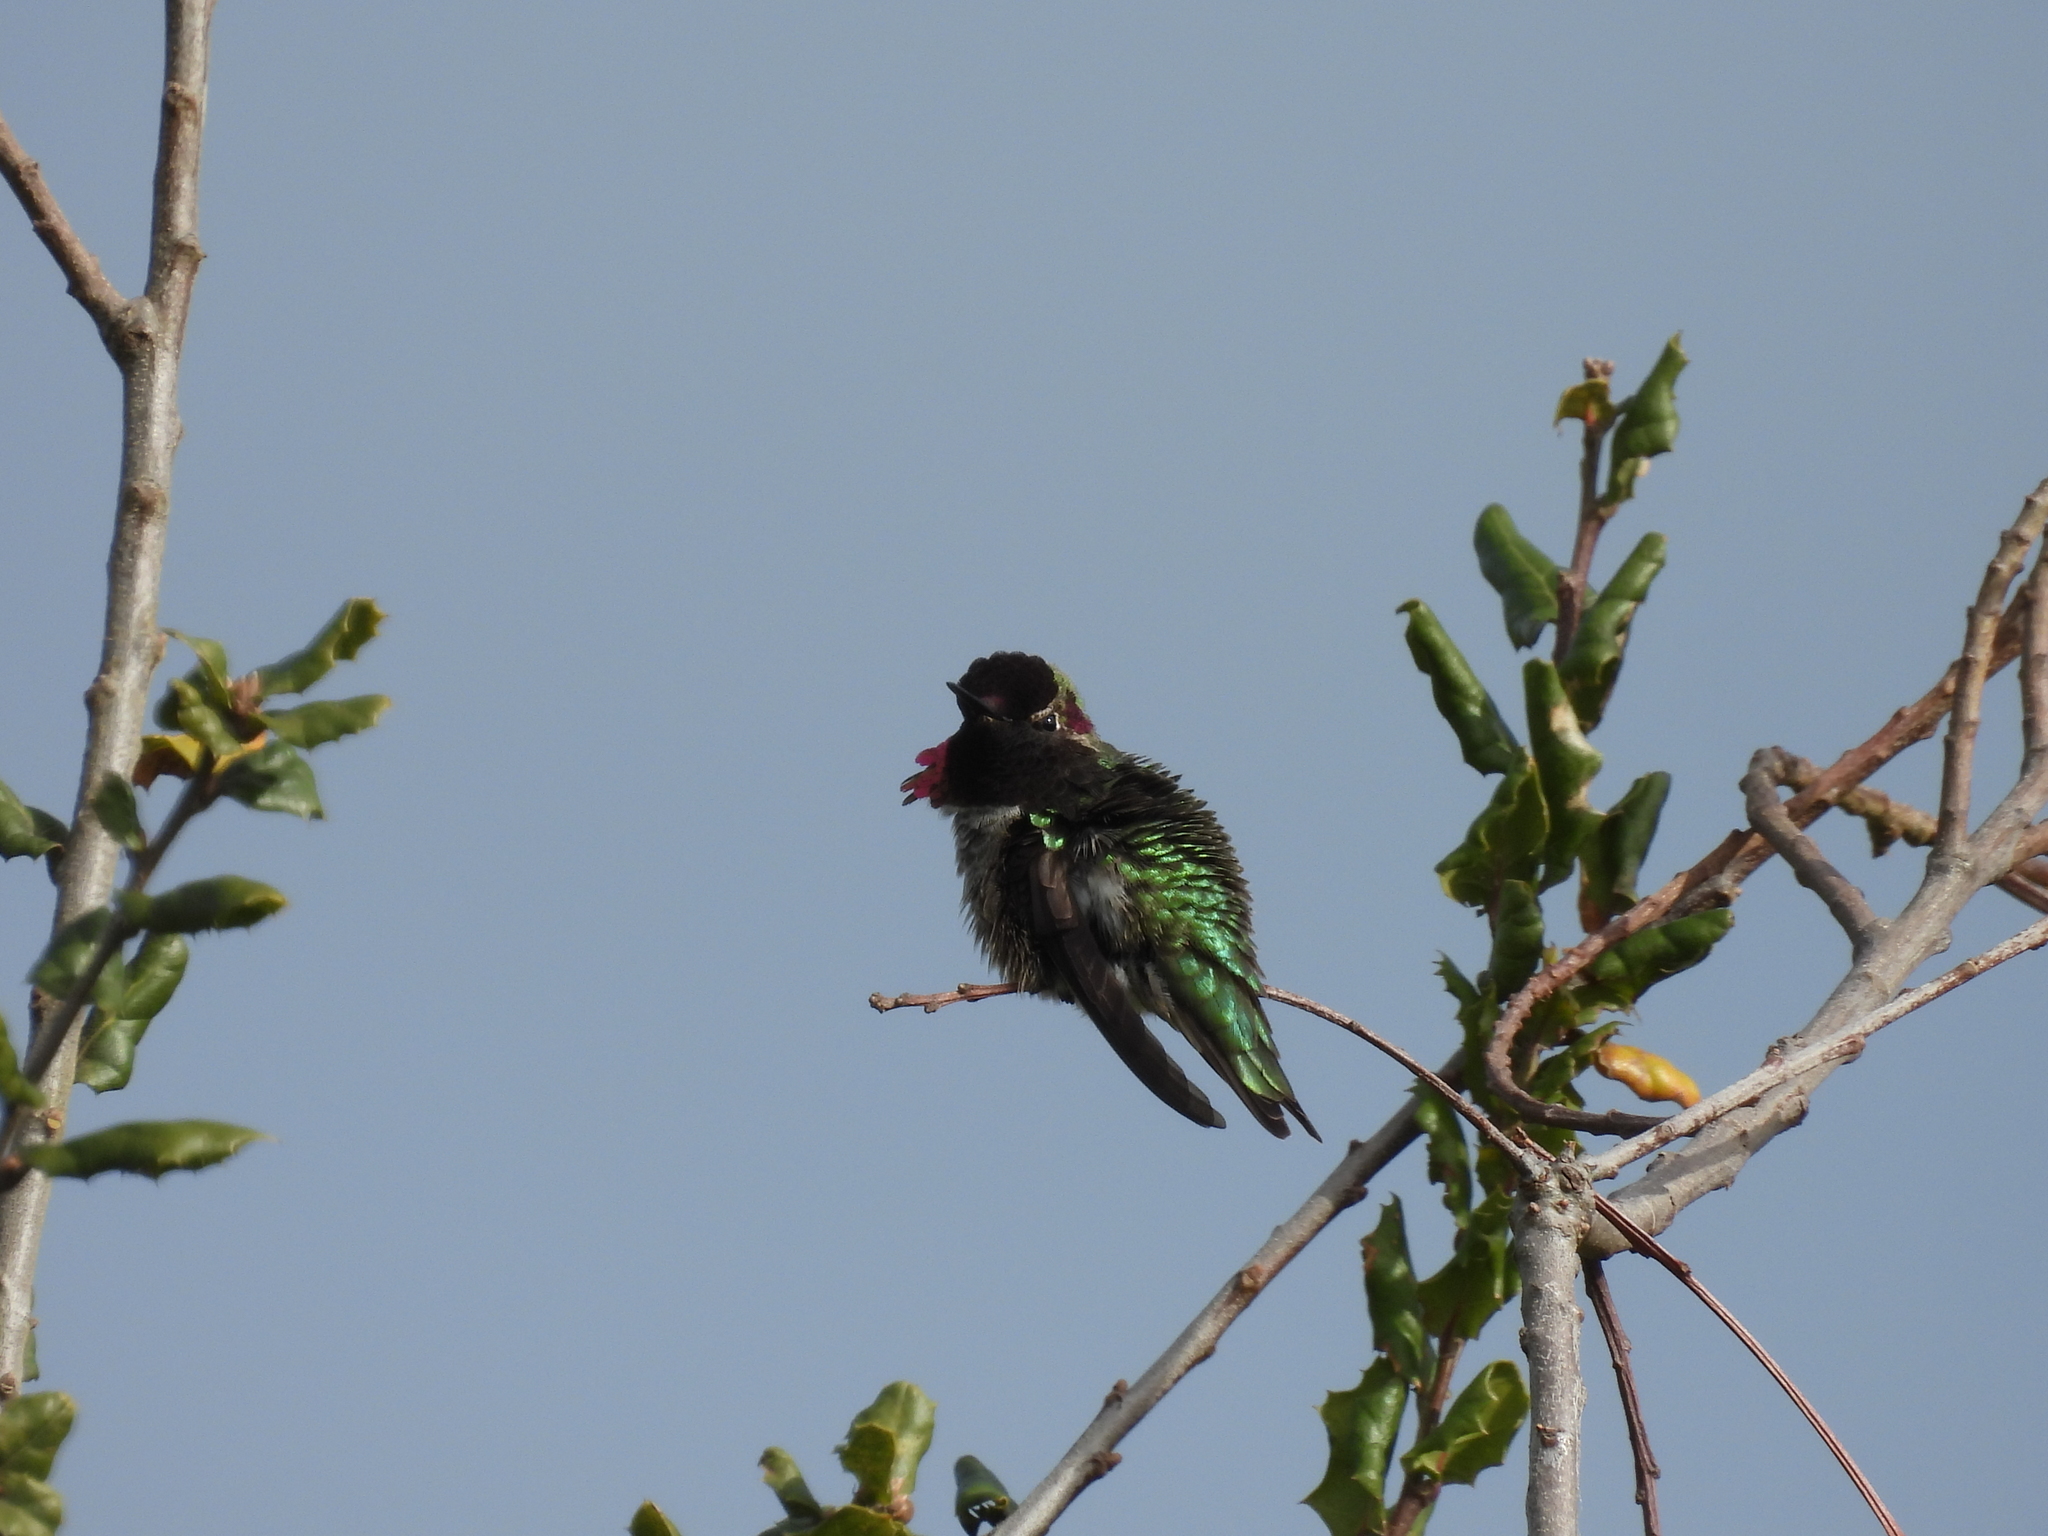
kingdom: Animalia
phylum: Chordata
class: Aves
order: Apodiformes
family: Trochilidae
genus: Calypte
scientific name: Calypte anna
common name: Anna's hummingbird
